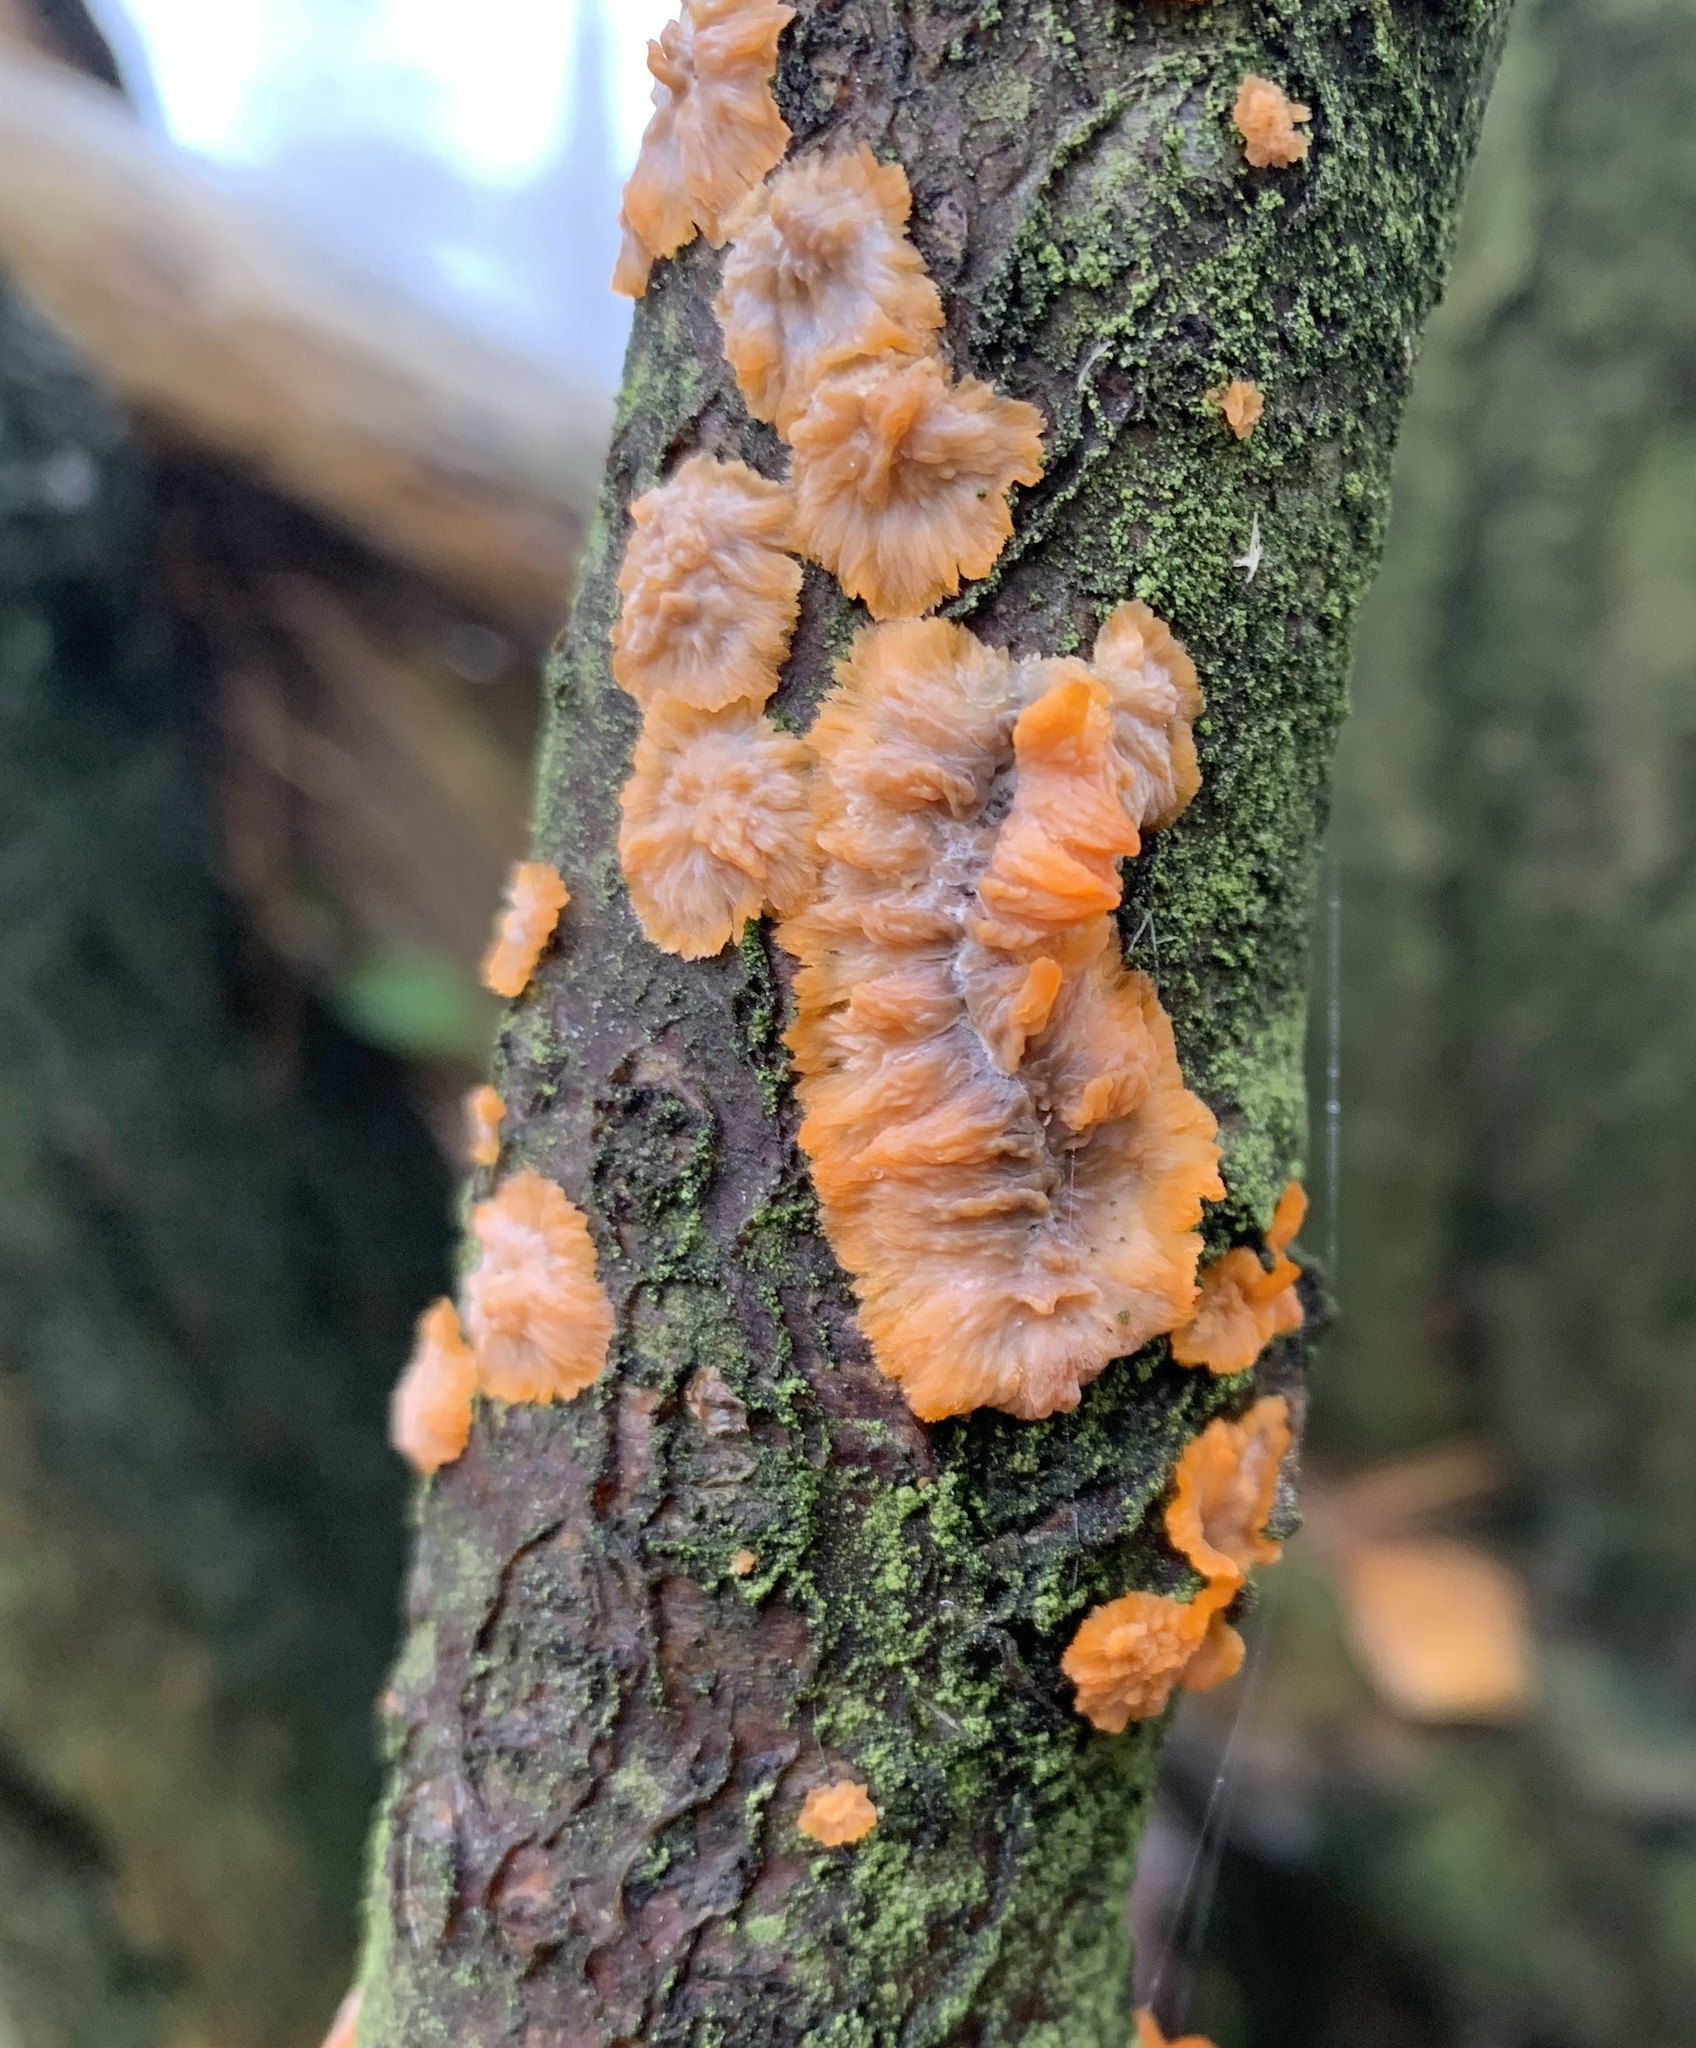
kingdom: Fungi
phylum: Basidiomycota
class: Agaricomycetes
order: Polyporales
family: Meruliaceae
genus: Phlebia
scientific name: Phlebia radiata
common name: Wrinkled crust
